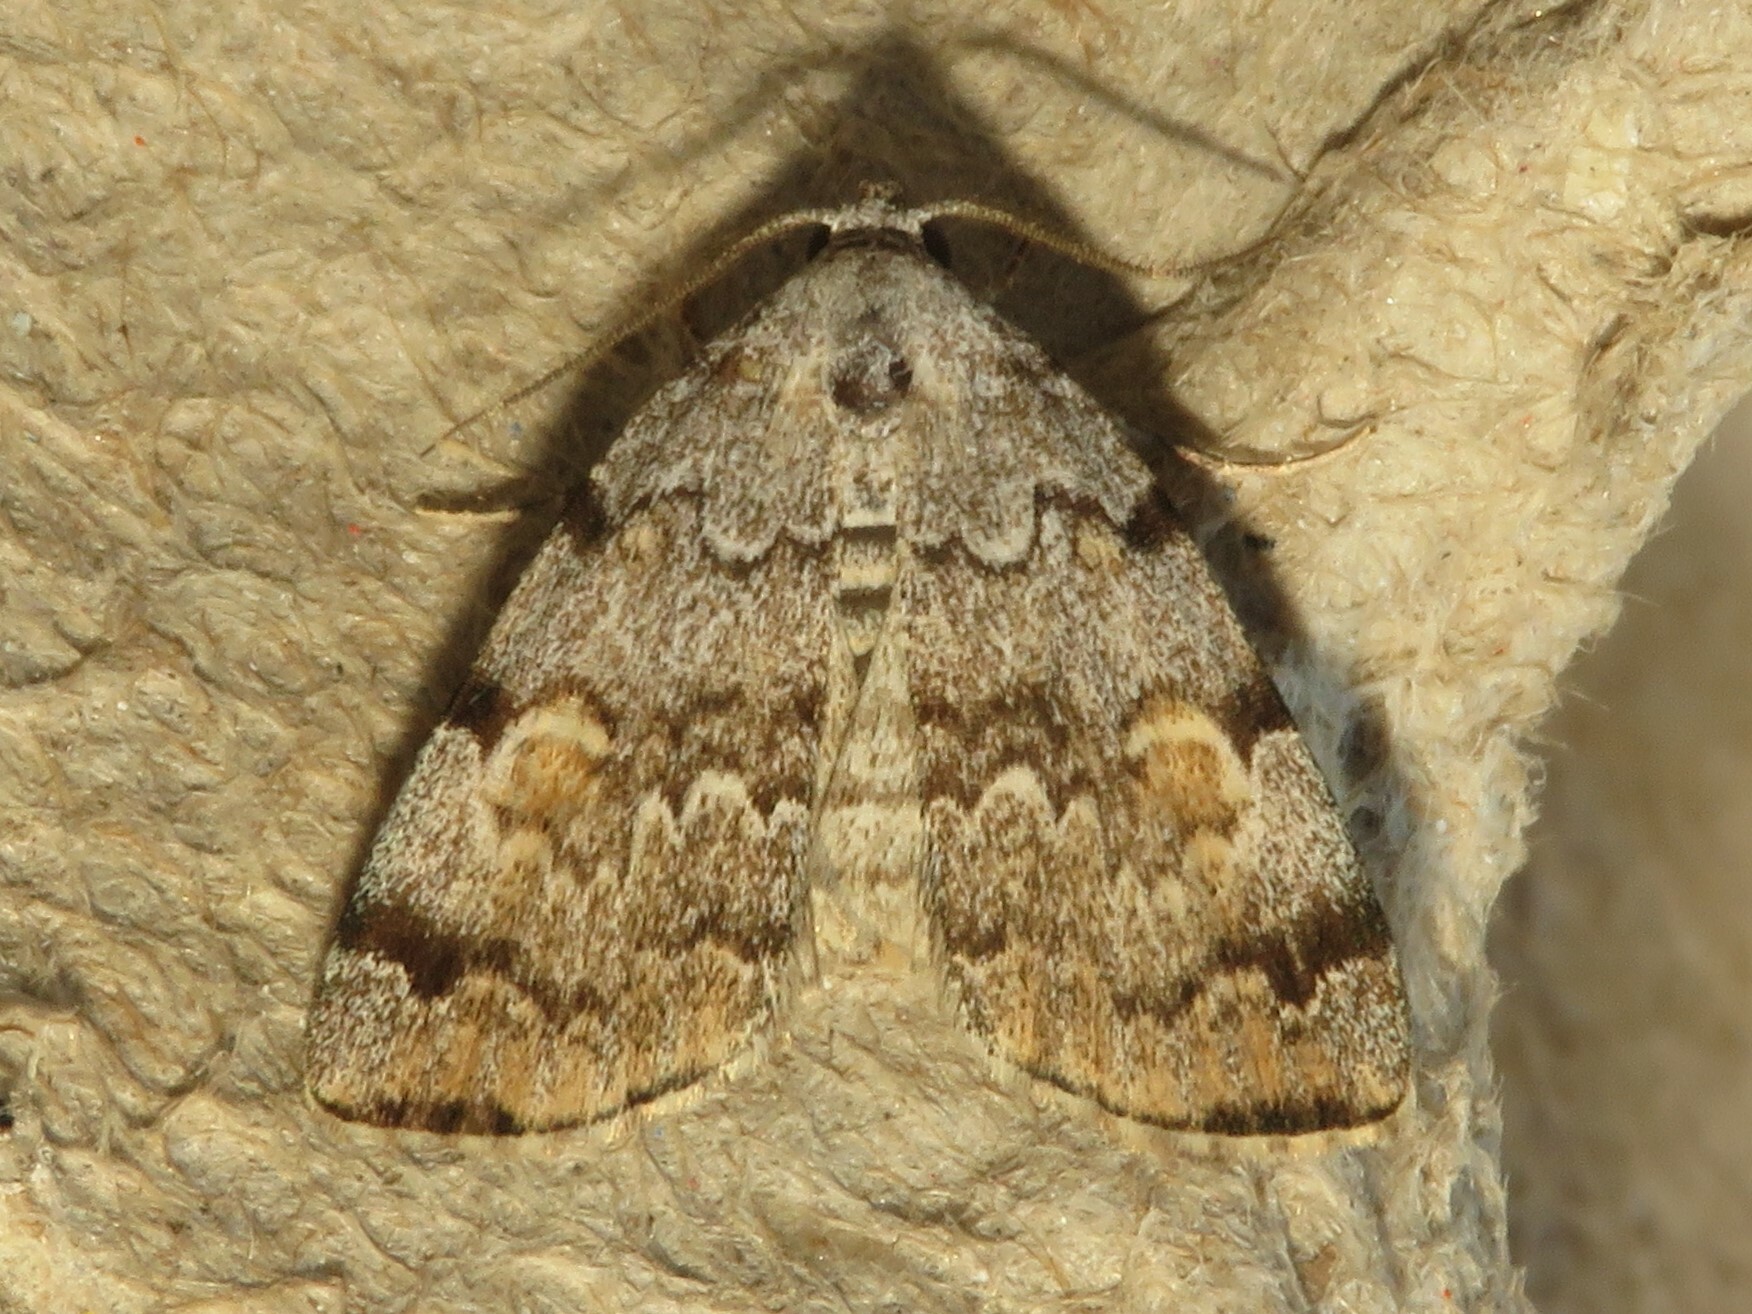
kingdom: Animalia
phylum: Arthropoda
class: Insecta
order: Lepidoptera
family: Erebidae
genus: Idia
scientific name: Idia americalis
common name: American idia moth
